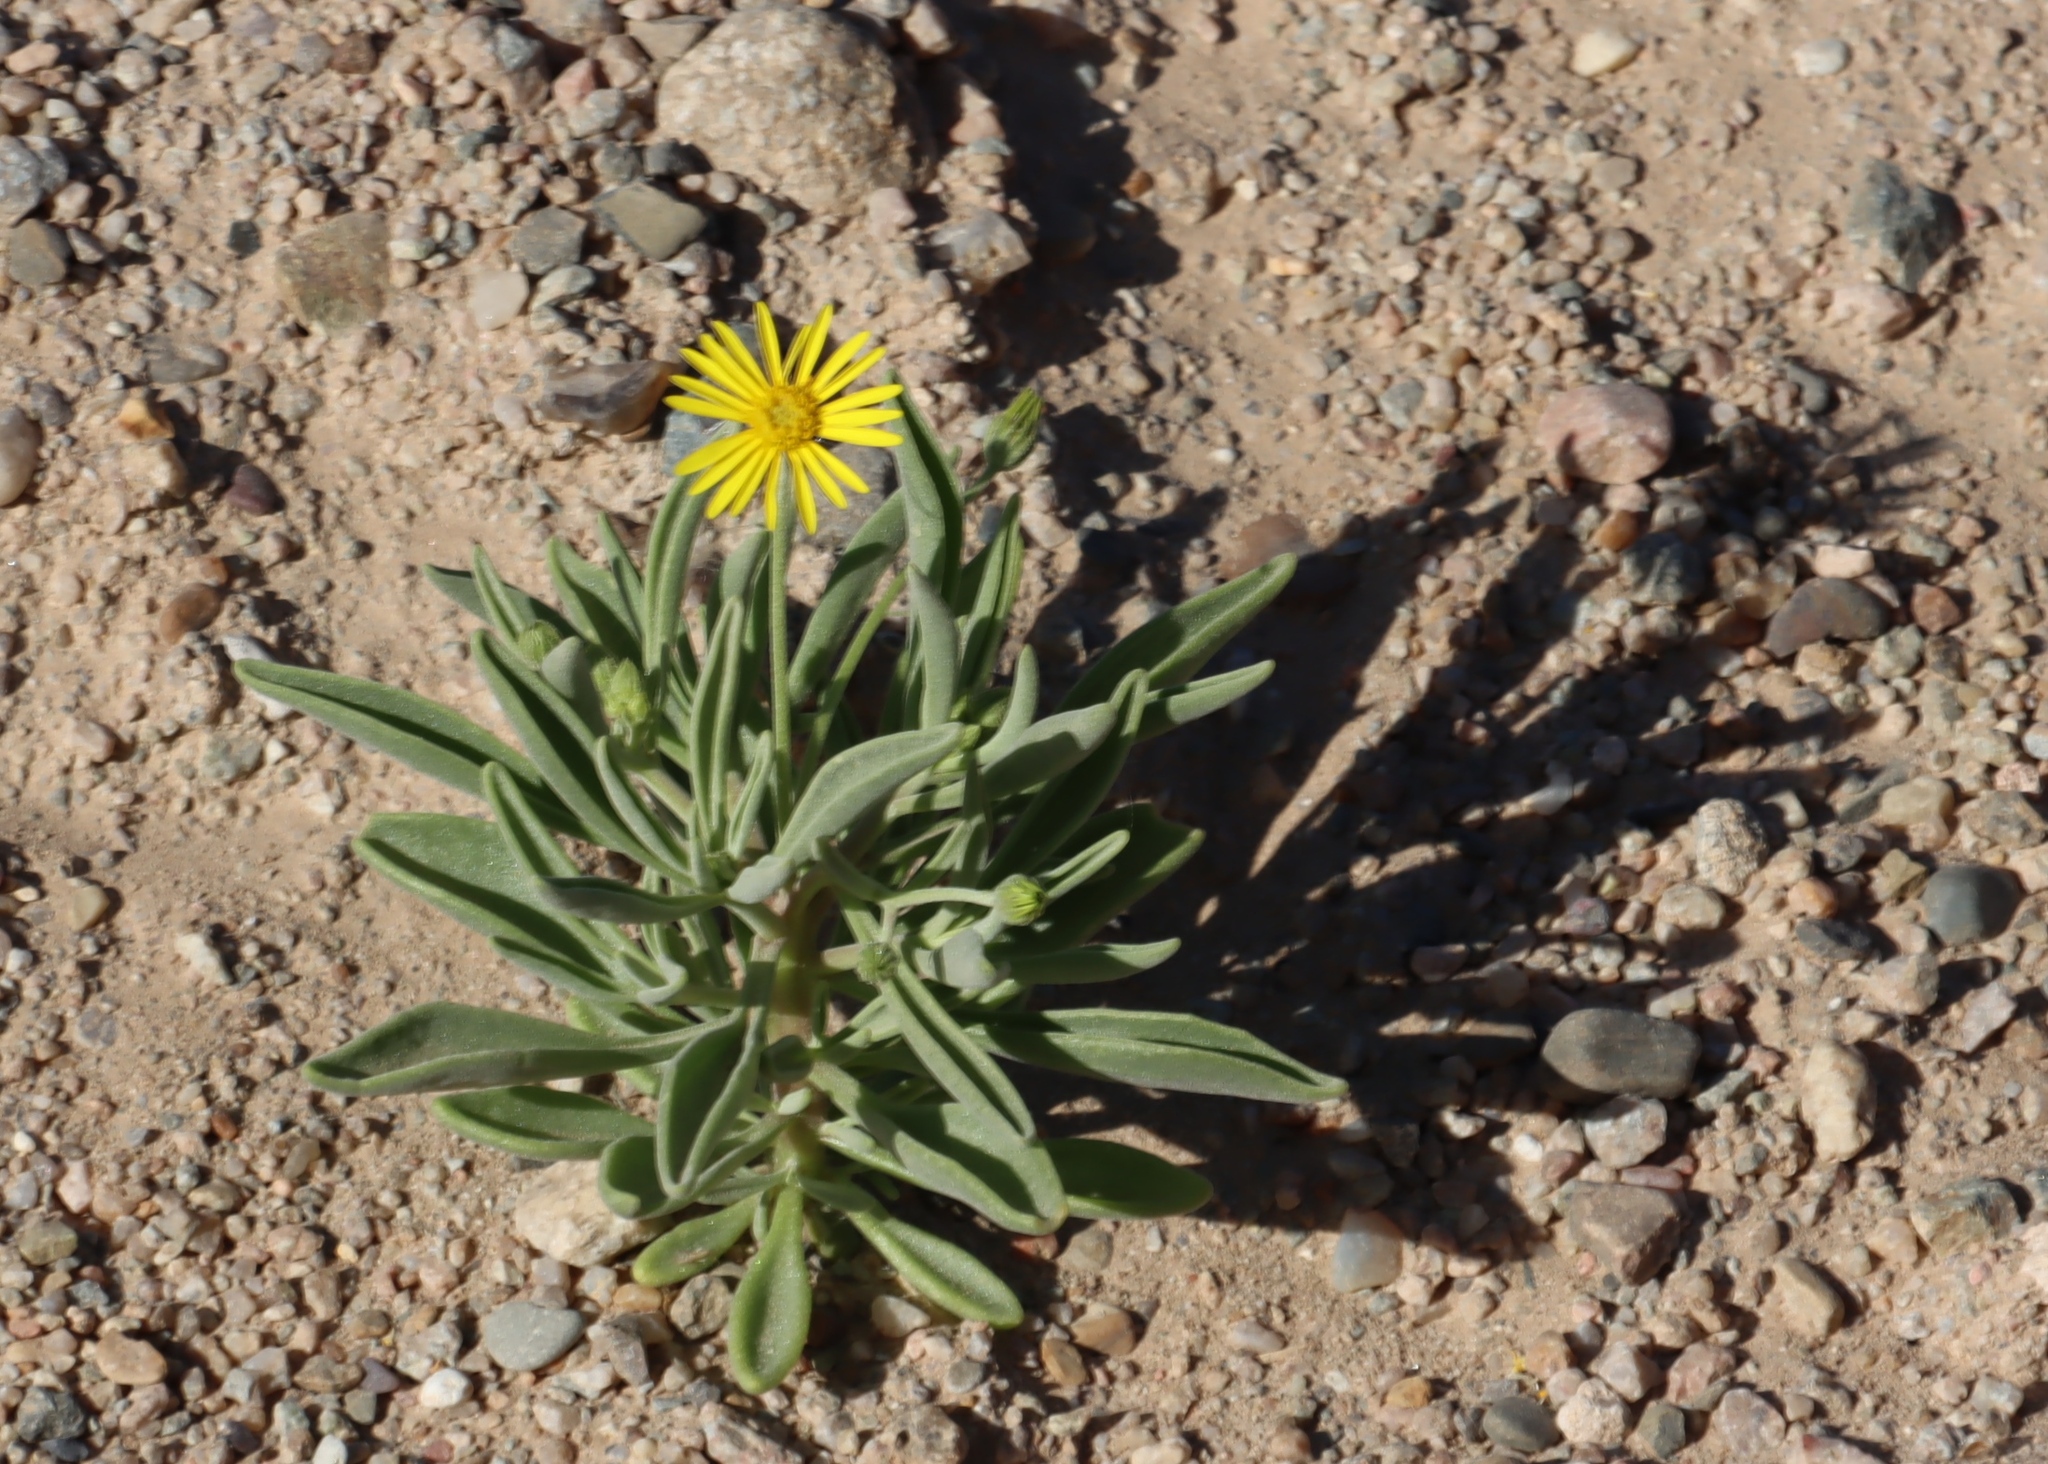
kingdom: Plantae
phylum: Tracheophyta
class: Magnoliopsida
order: Asterales
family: Asteraceae
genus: Osteospermum
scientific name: Osteospermum crassifolium
